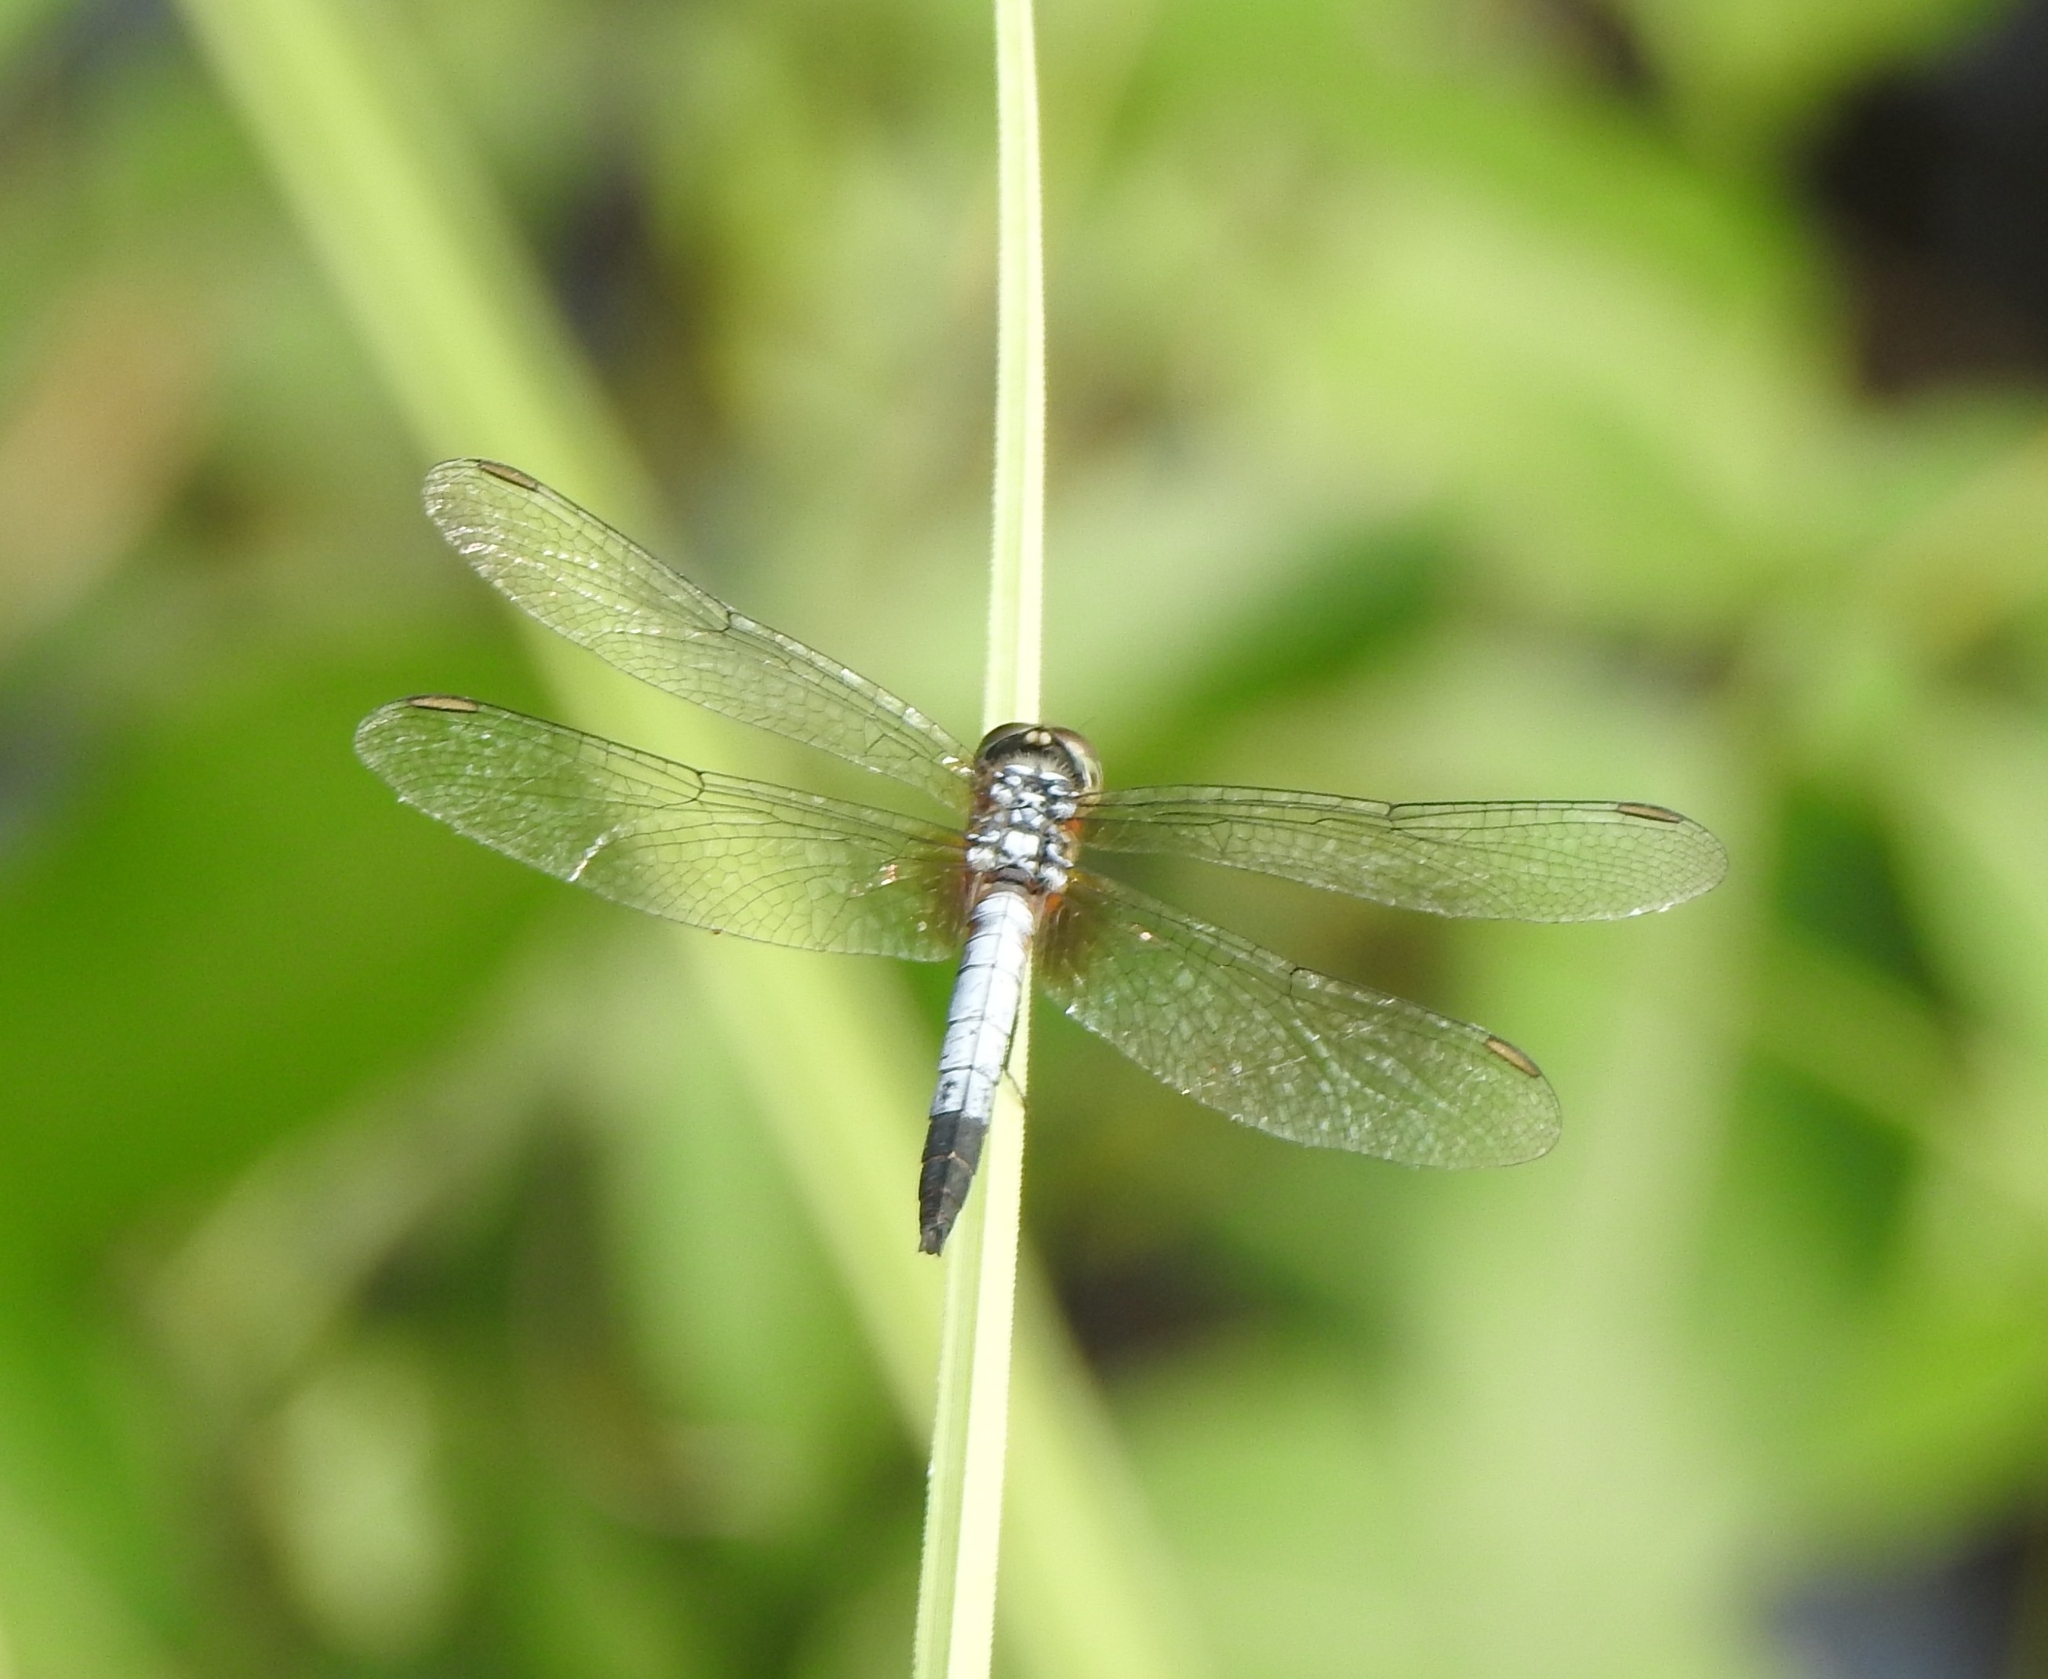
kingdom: Animalia
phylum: Arthropoda
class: Insecta
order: Odonata
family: Libellulidae
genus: Brachydiplax
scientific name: Brachydiplax chalybea
